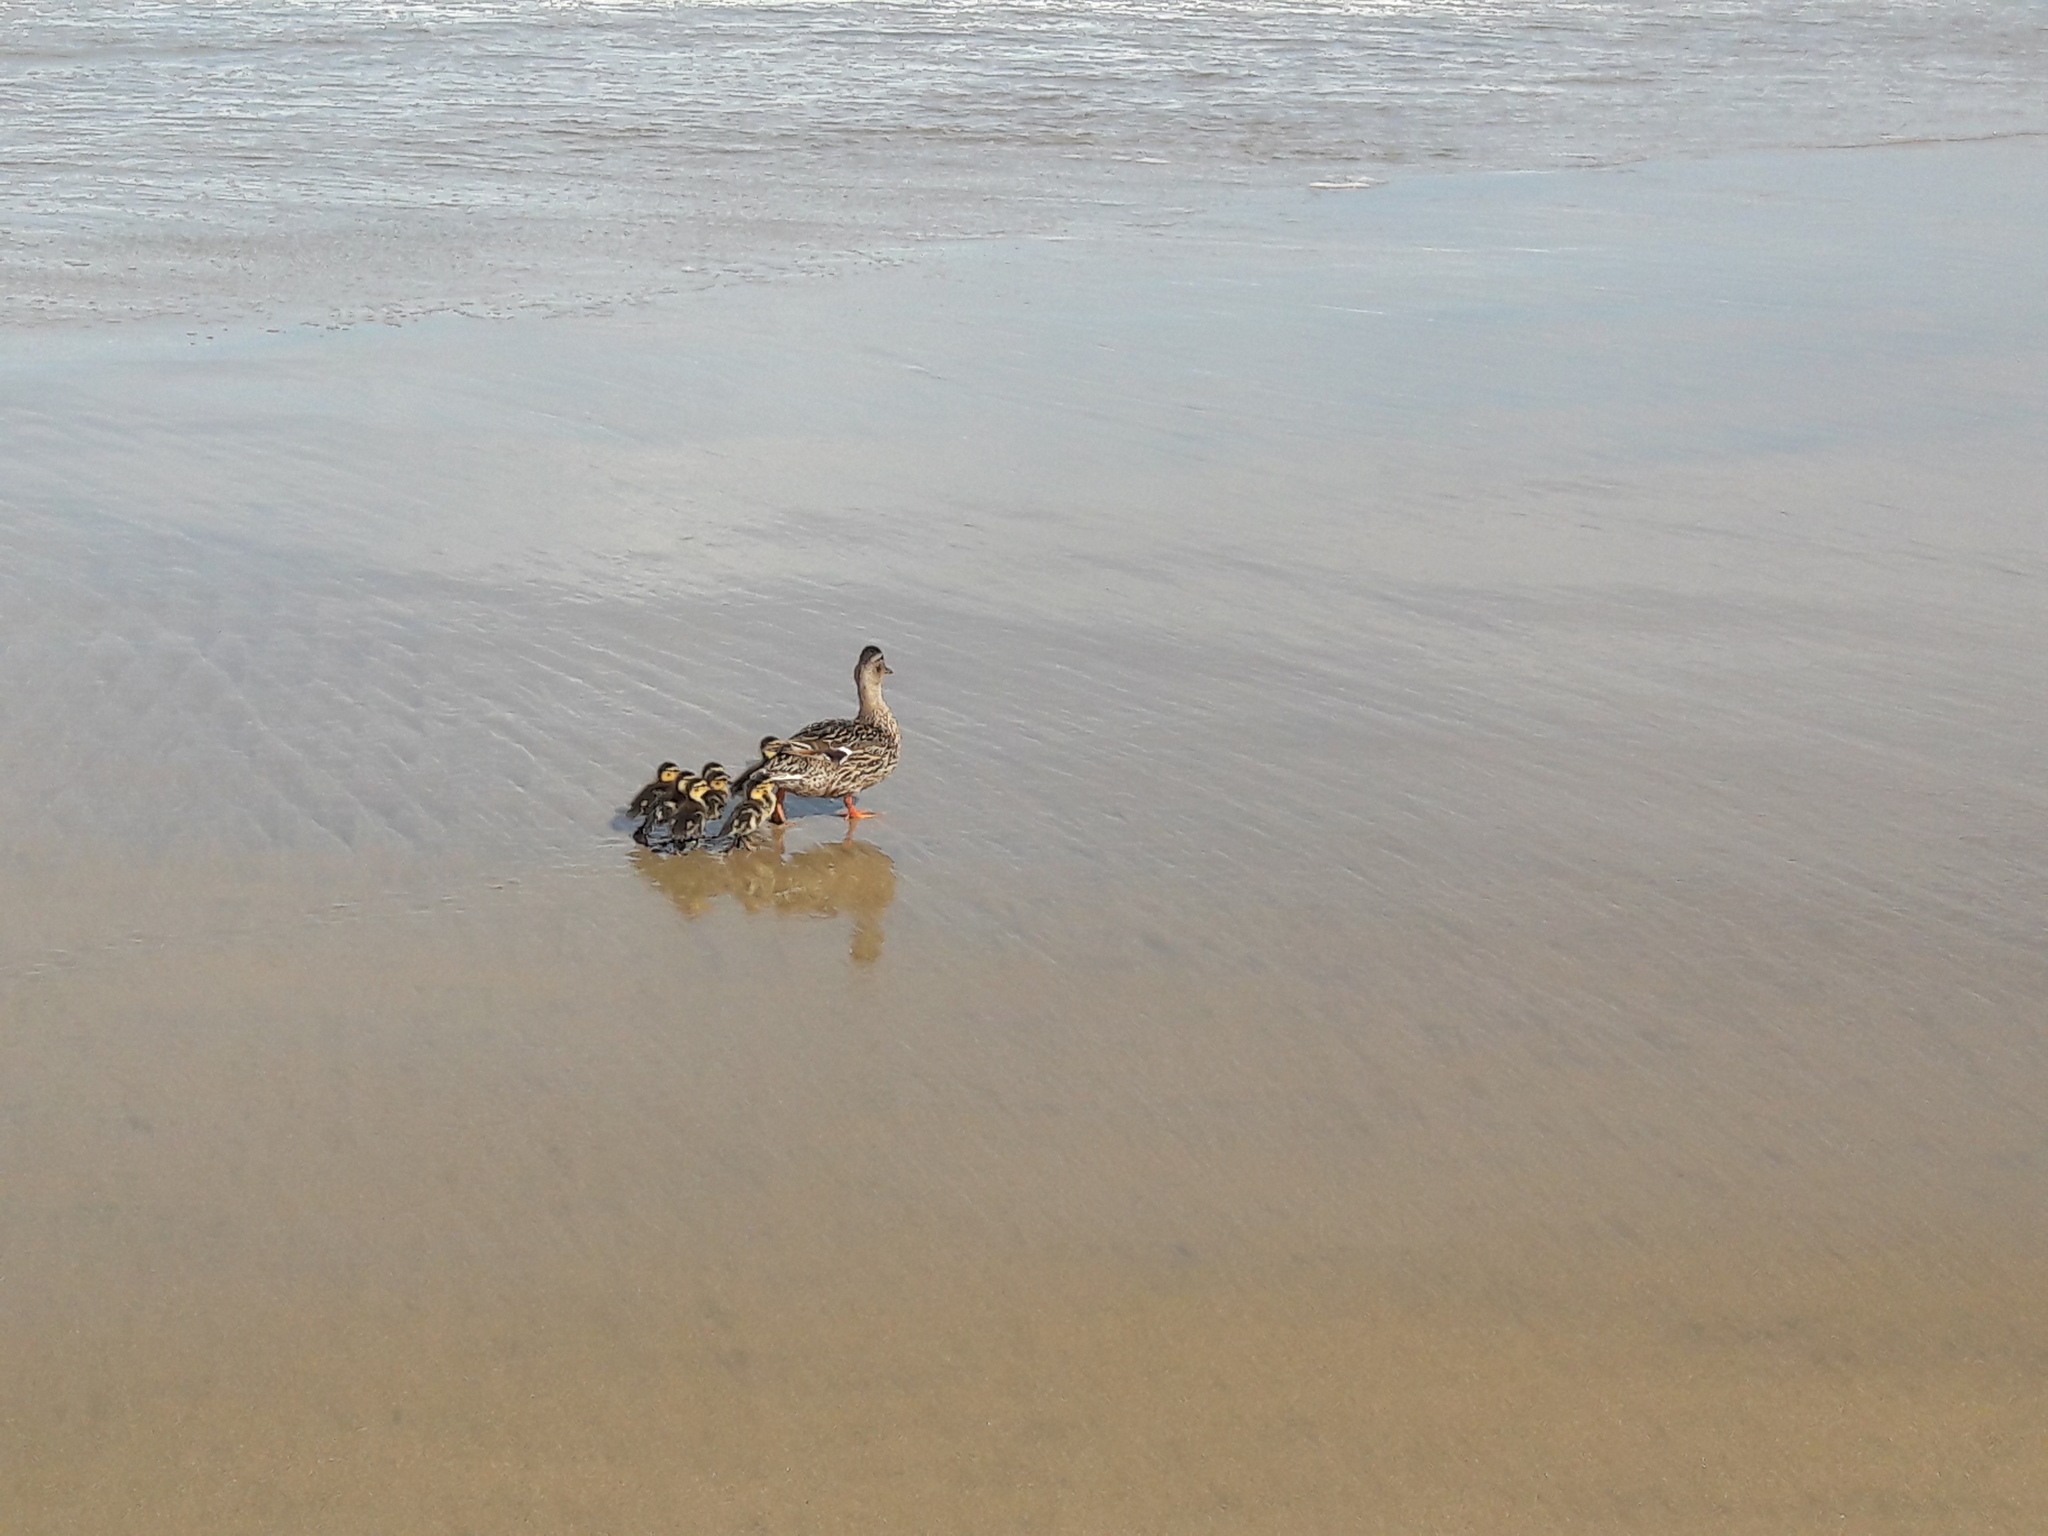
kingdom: Animalia
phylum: Chordata
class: Aves
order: Anseriformes
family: Anatidae
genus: Anas
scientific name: Anas platyrhynchos
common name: Mallard
